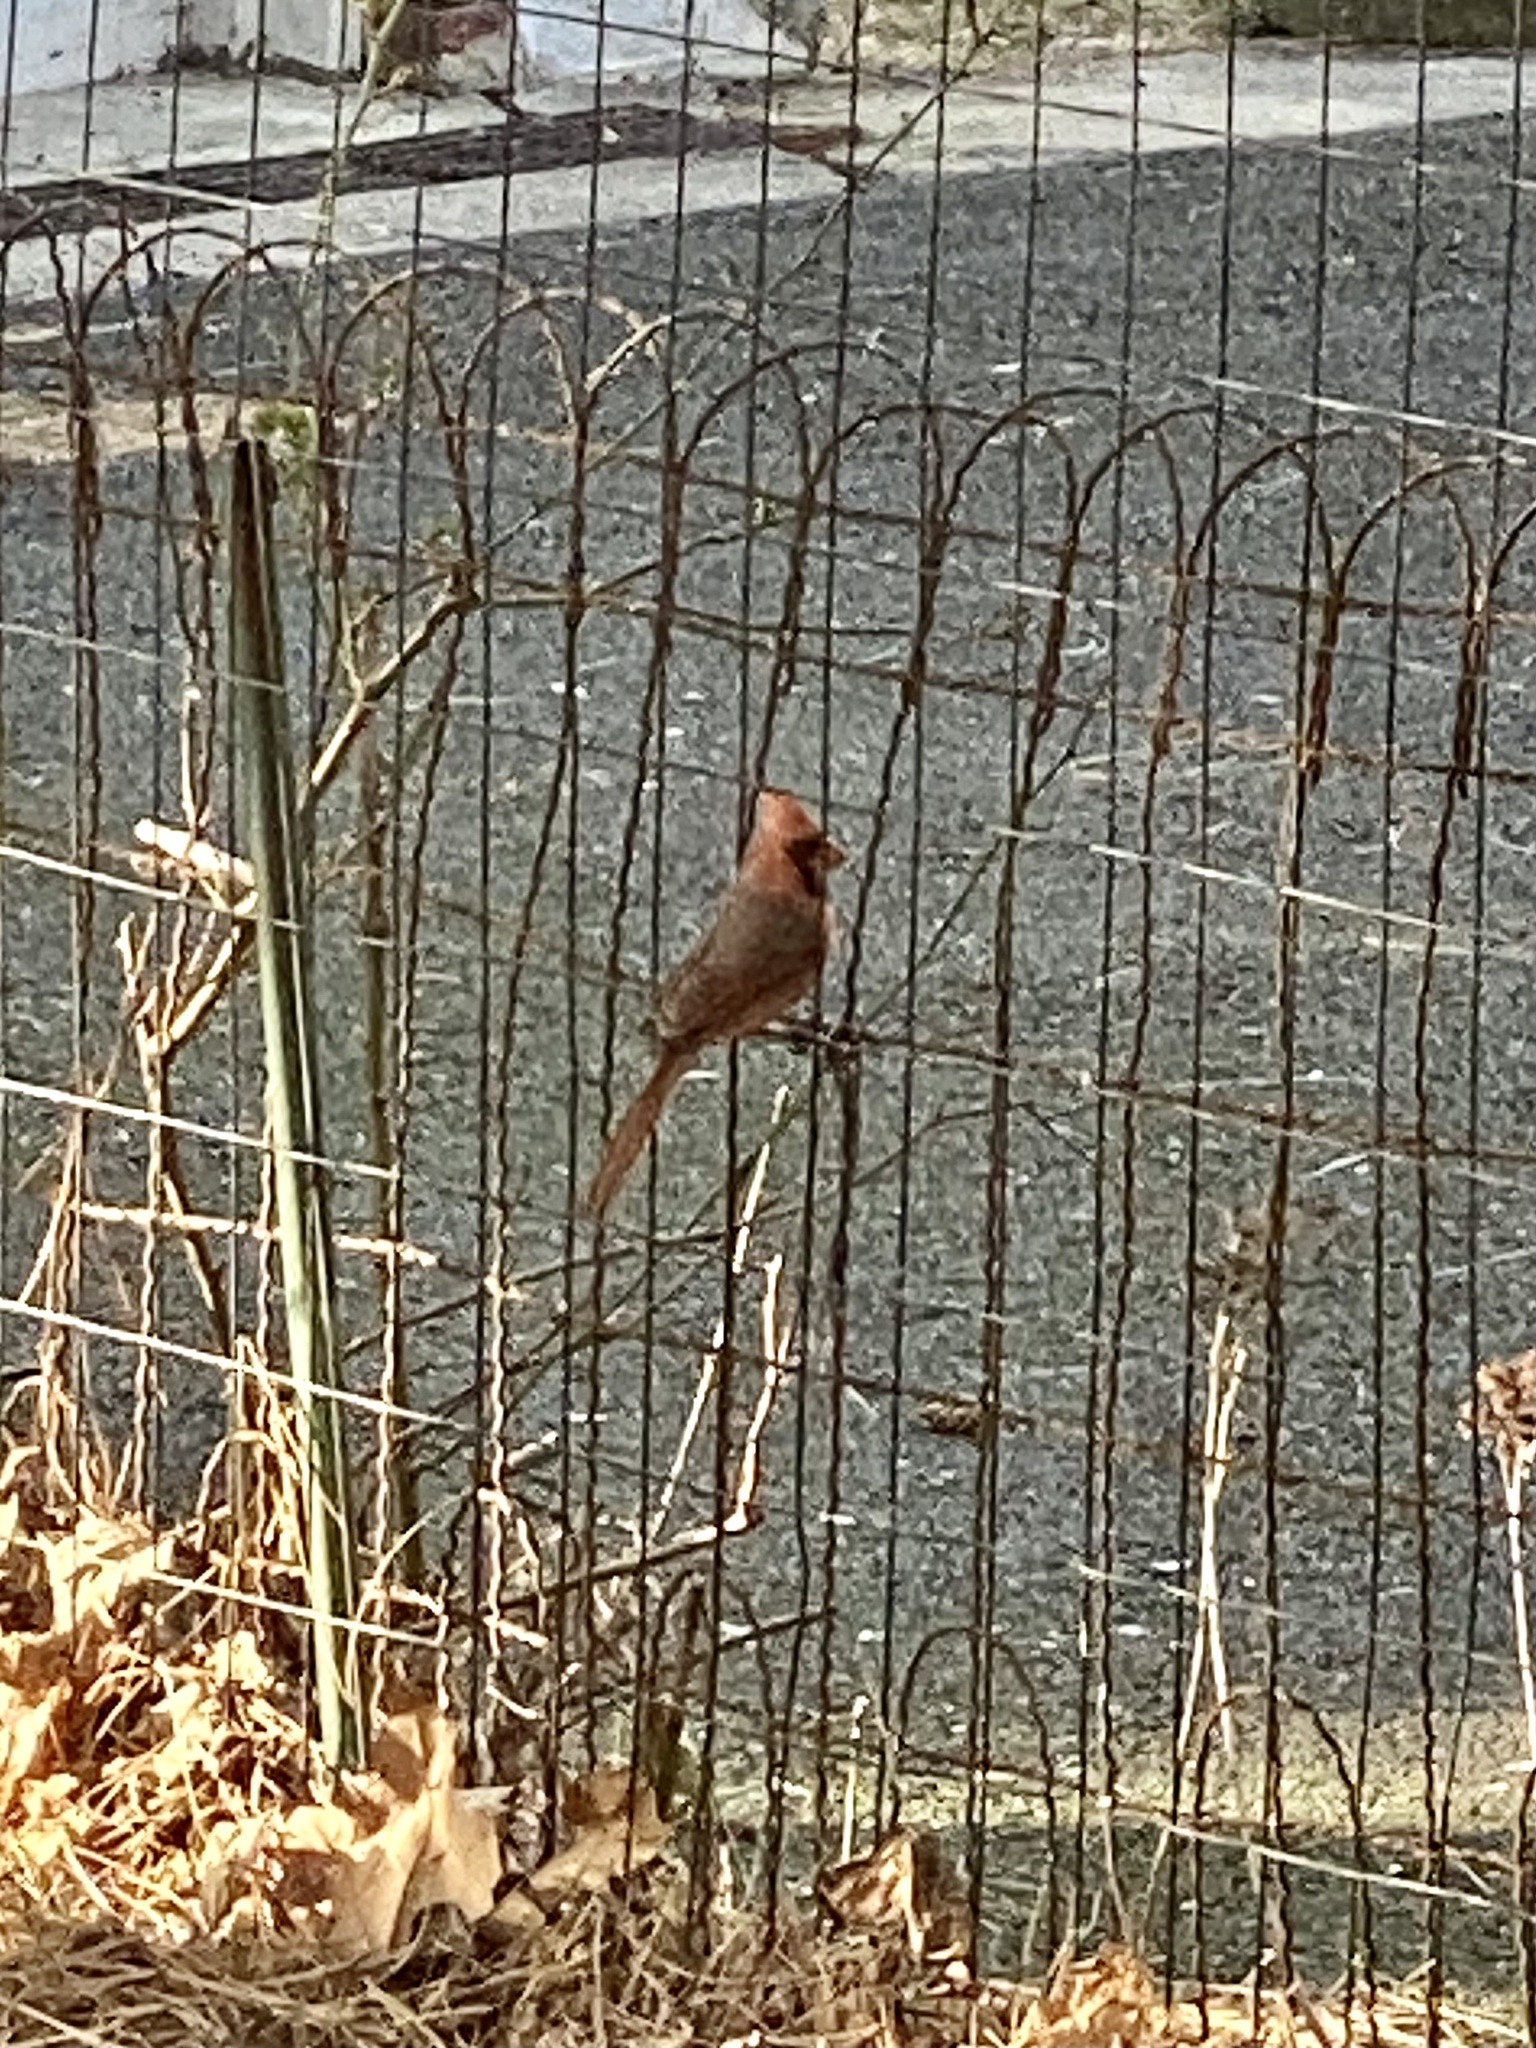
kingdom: Animalia
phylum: Chordata
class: Aves
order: Passeriformes
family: Cardinalidae
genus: Cardinalis
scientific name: Cardinalis cardinalis
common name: Northern cardinal
